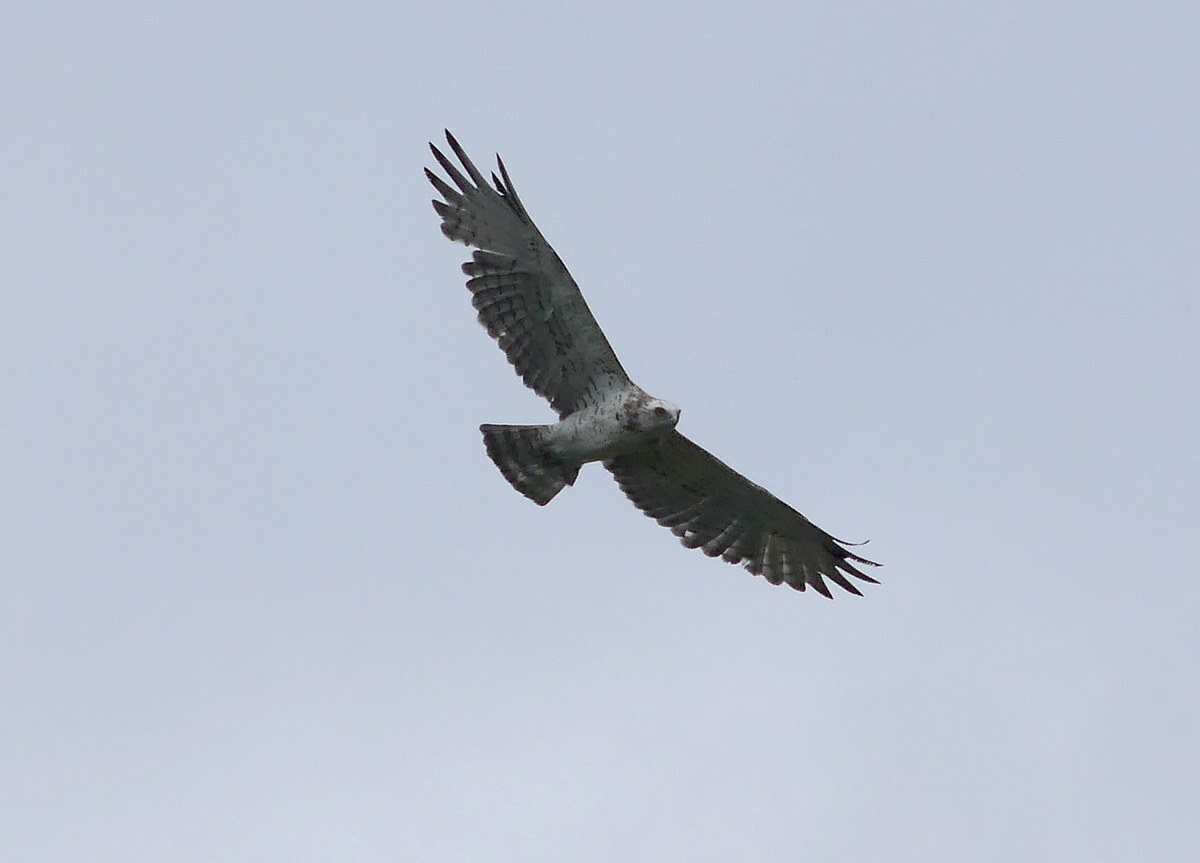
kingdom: Animalia
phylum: Chordata
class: Aves
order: Accipitriformes
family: Accipitridae
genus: Circaetus
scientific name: Circaetus gallicus
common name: Short-toed snake eagle
